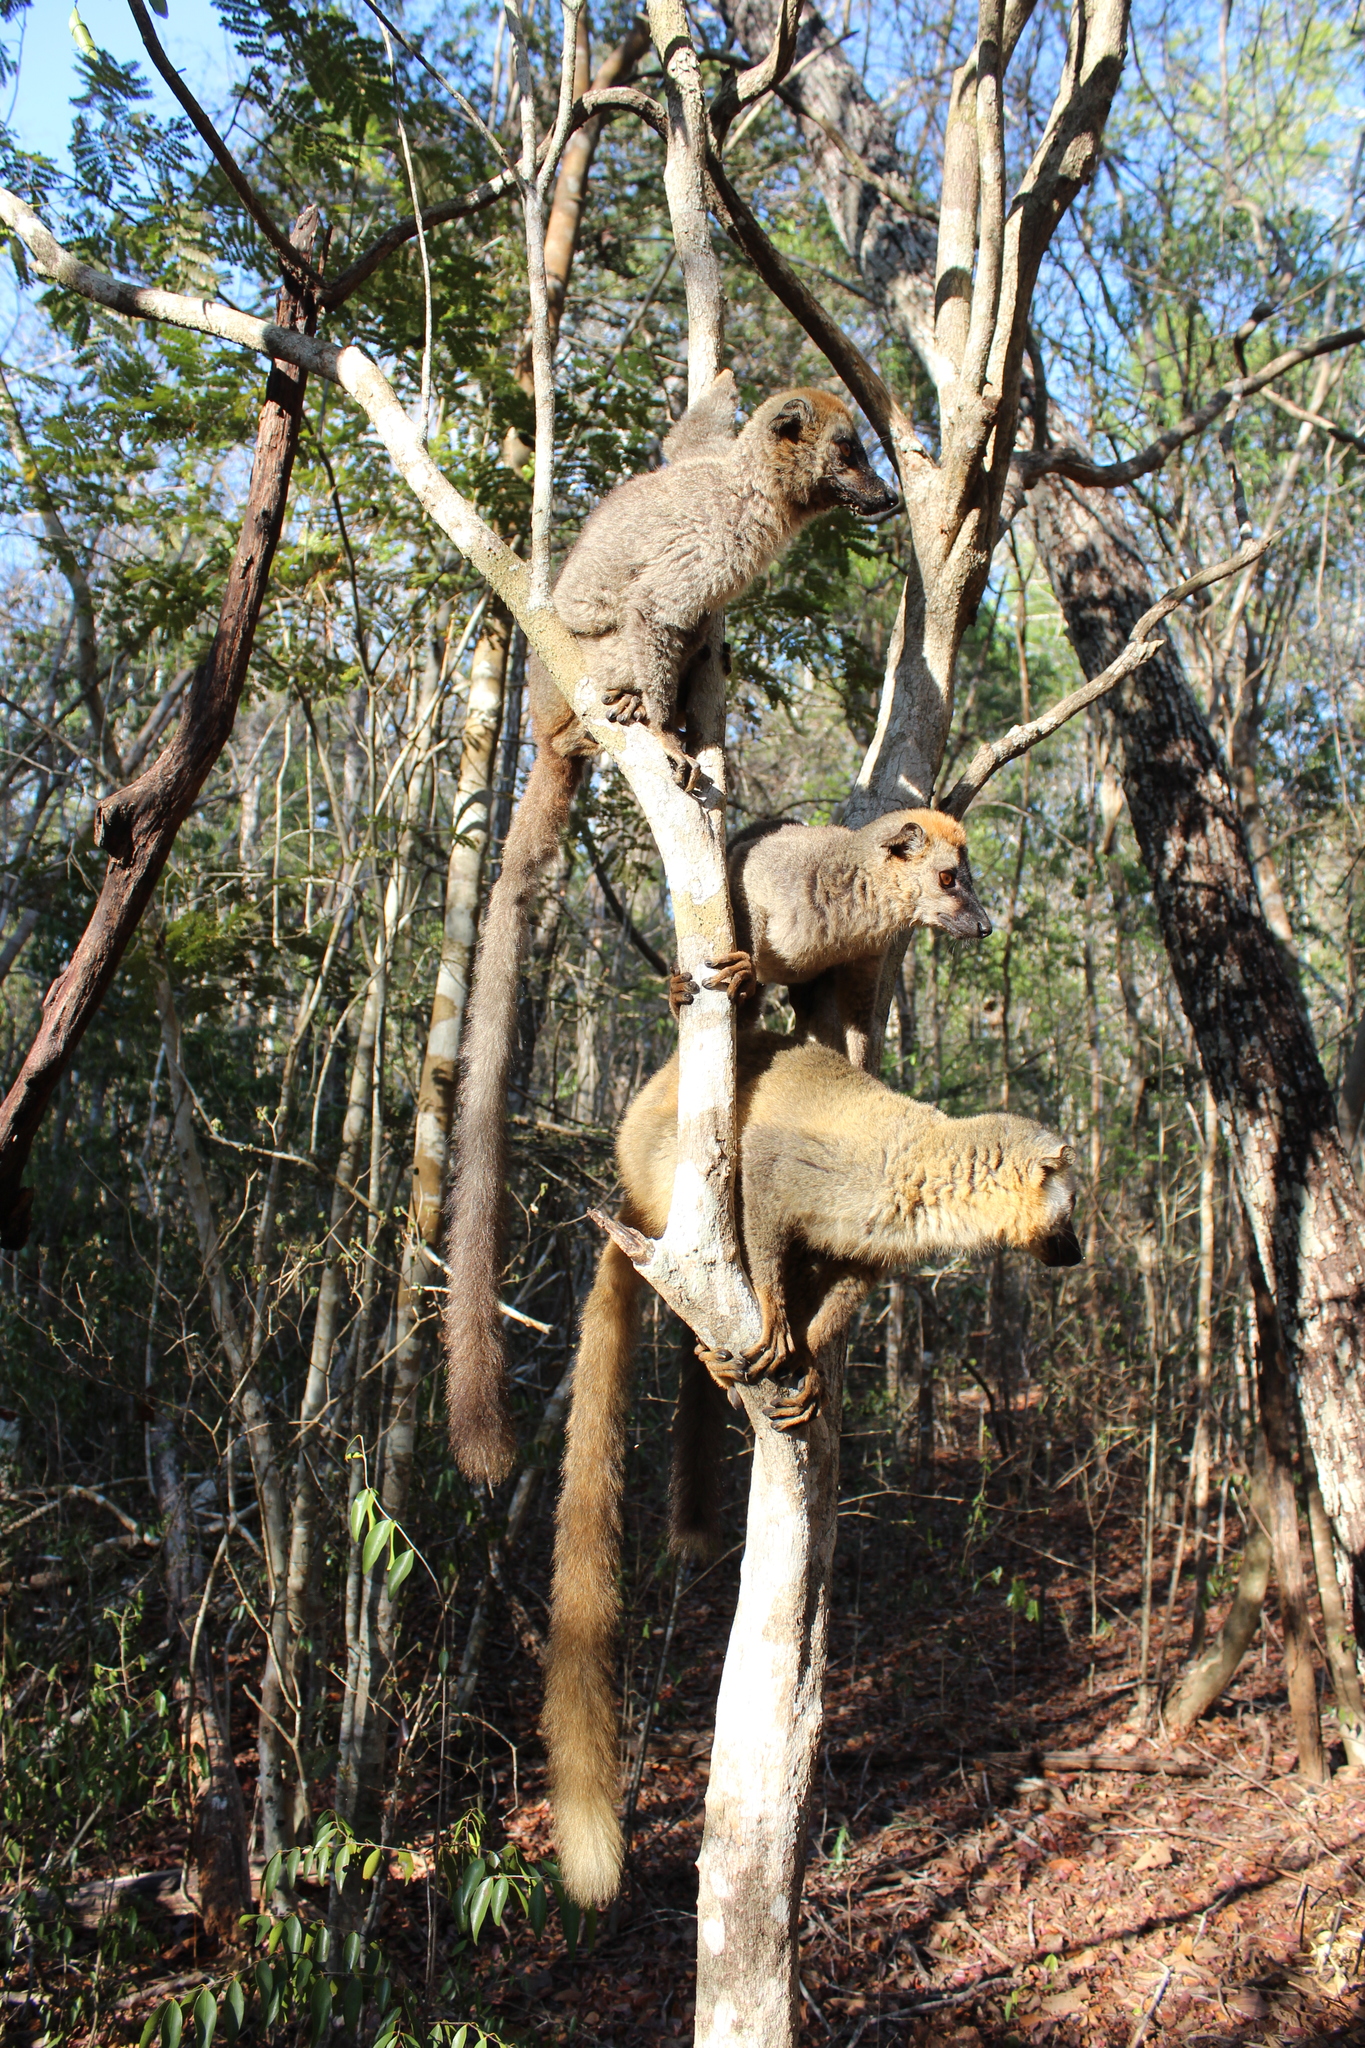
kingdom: Animalia
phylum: Chordata
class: Mammalia
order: Primates
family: Lemuridae
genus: Eulemur
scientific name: Eulemur rufifrons
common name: Red-fronted brown lemur
